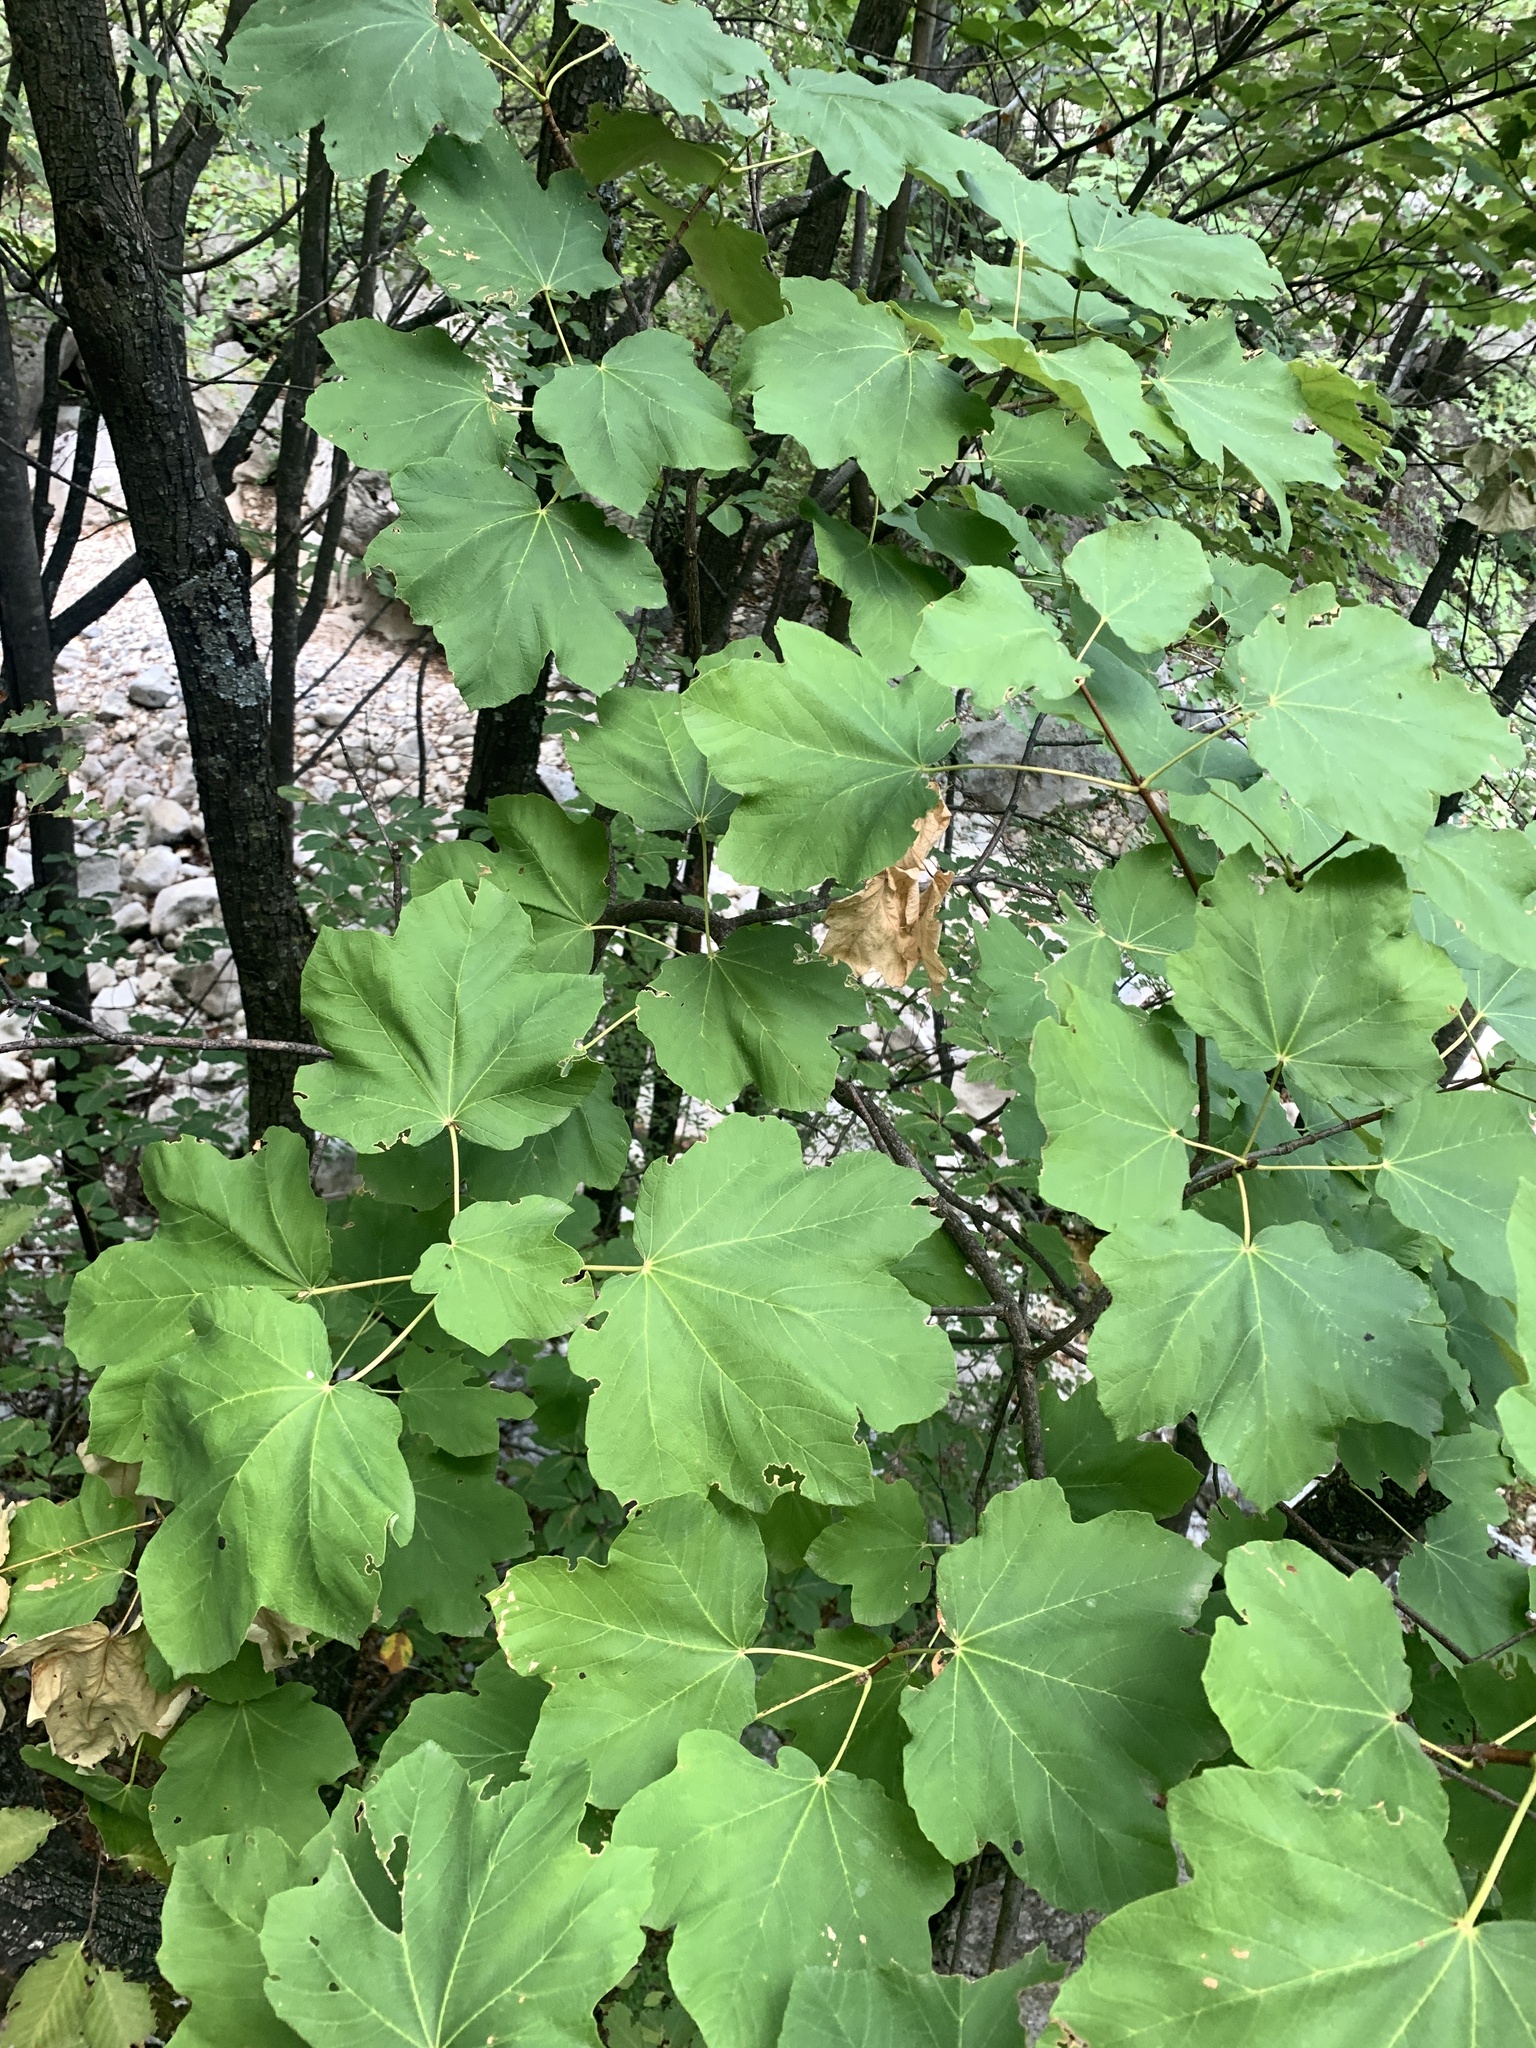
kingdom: Plantae
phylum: Tracheophyta
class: Magnoliopsida
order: Sapindales
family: Sapindaceae
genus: Acer
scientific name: Acer obtusatum
